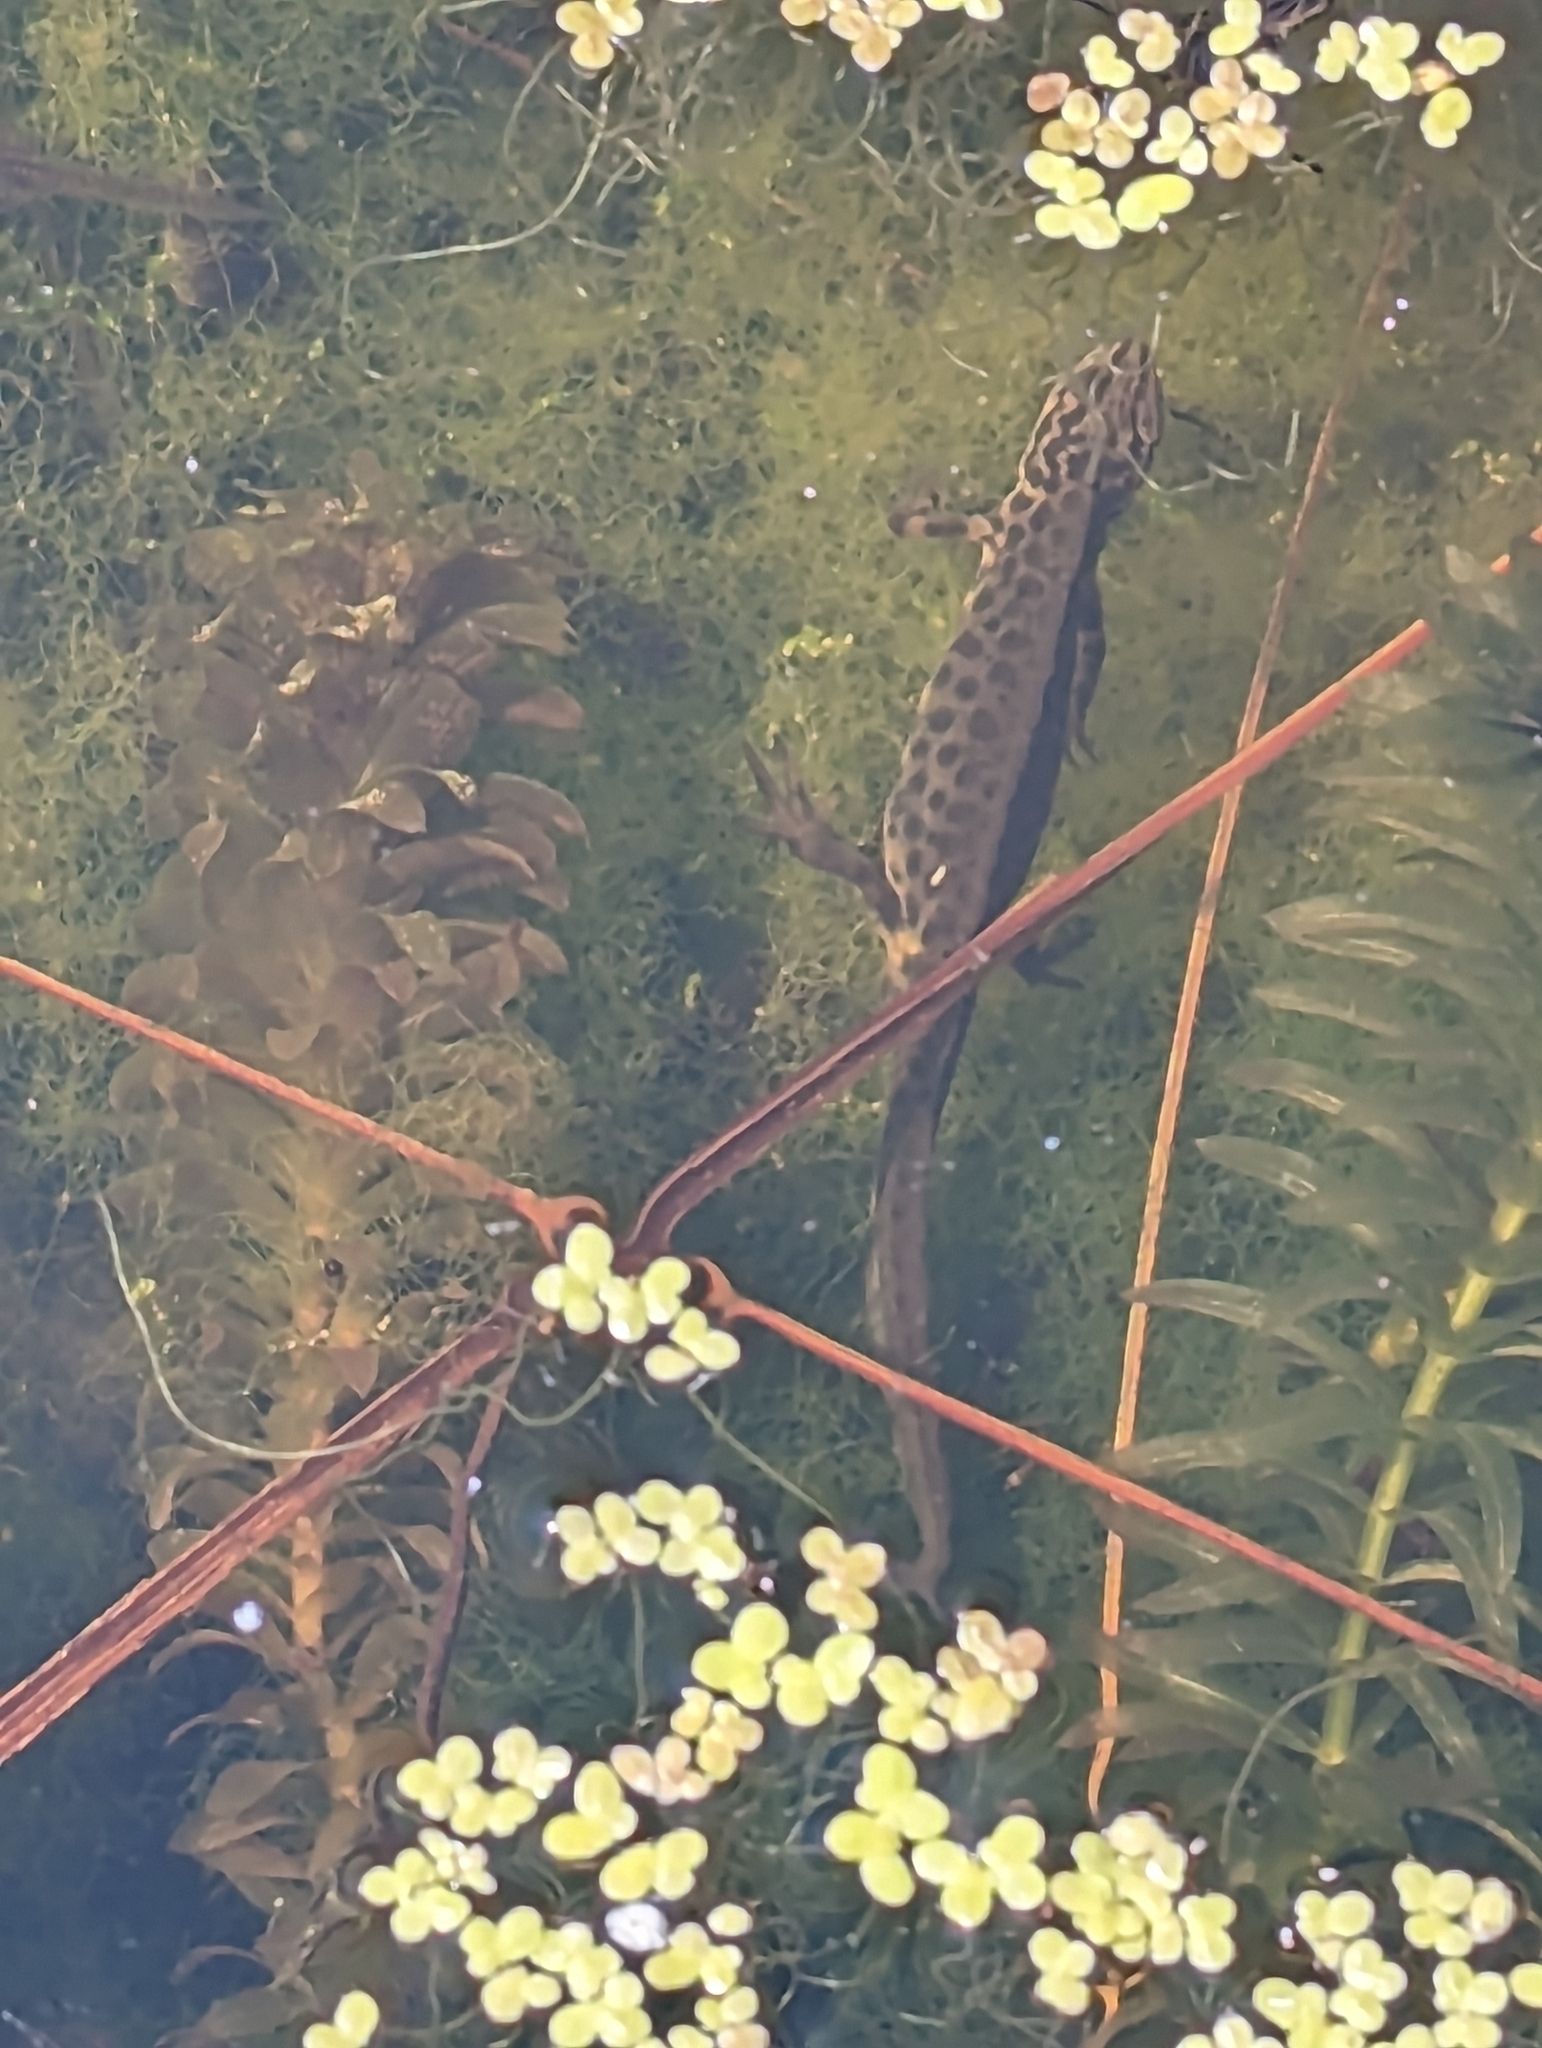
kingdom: Animalia
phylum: Chordata
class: Amphibia
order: Caudata
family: Salamandridae
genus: Lissotriton
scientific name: Lissotriton vulgaris
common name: Smooth newt
